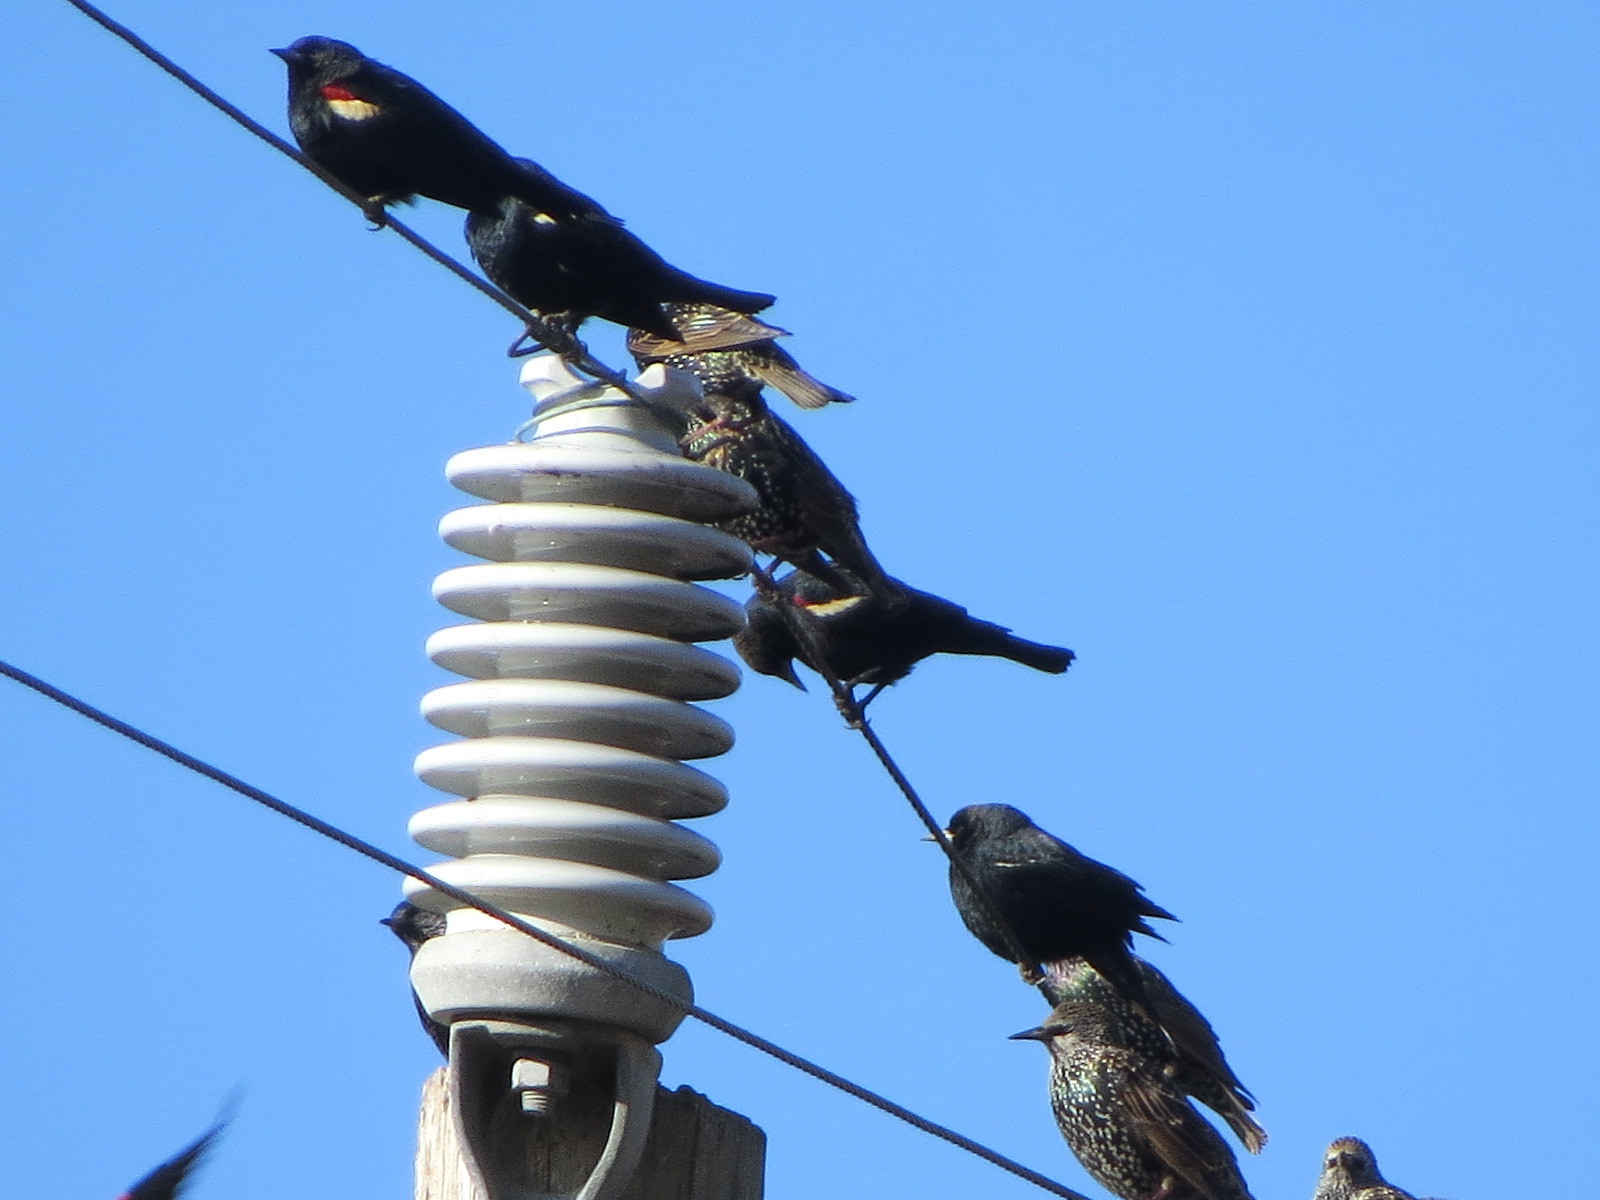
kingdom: Animalia
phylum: Chordata
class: Aves
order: Passeriformes
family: Icteridae
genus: Agelaius
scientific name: Agelaius tricolor
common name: Tricolored blackbird
